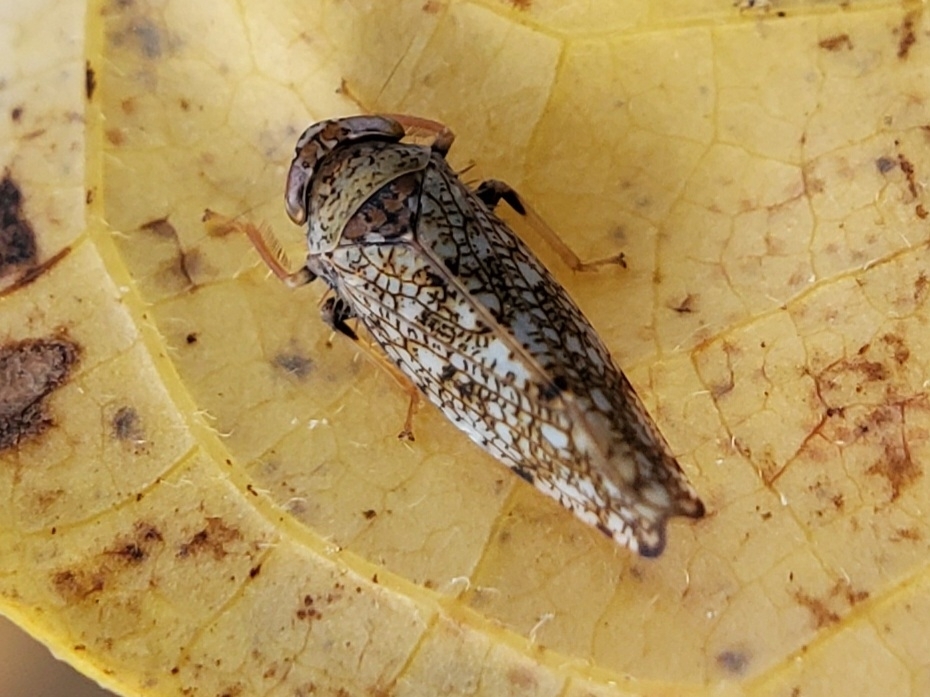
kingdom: Animalia
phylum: Arthropoda
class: Insecta
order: Hemiptera
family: Cicadellidae
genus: Orientus
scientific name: Orientus ishidae
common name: Japanese leafhopper
